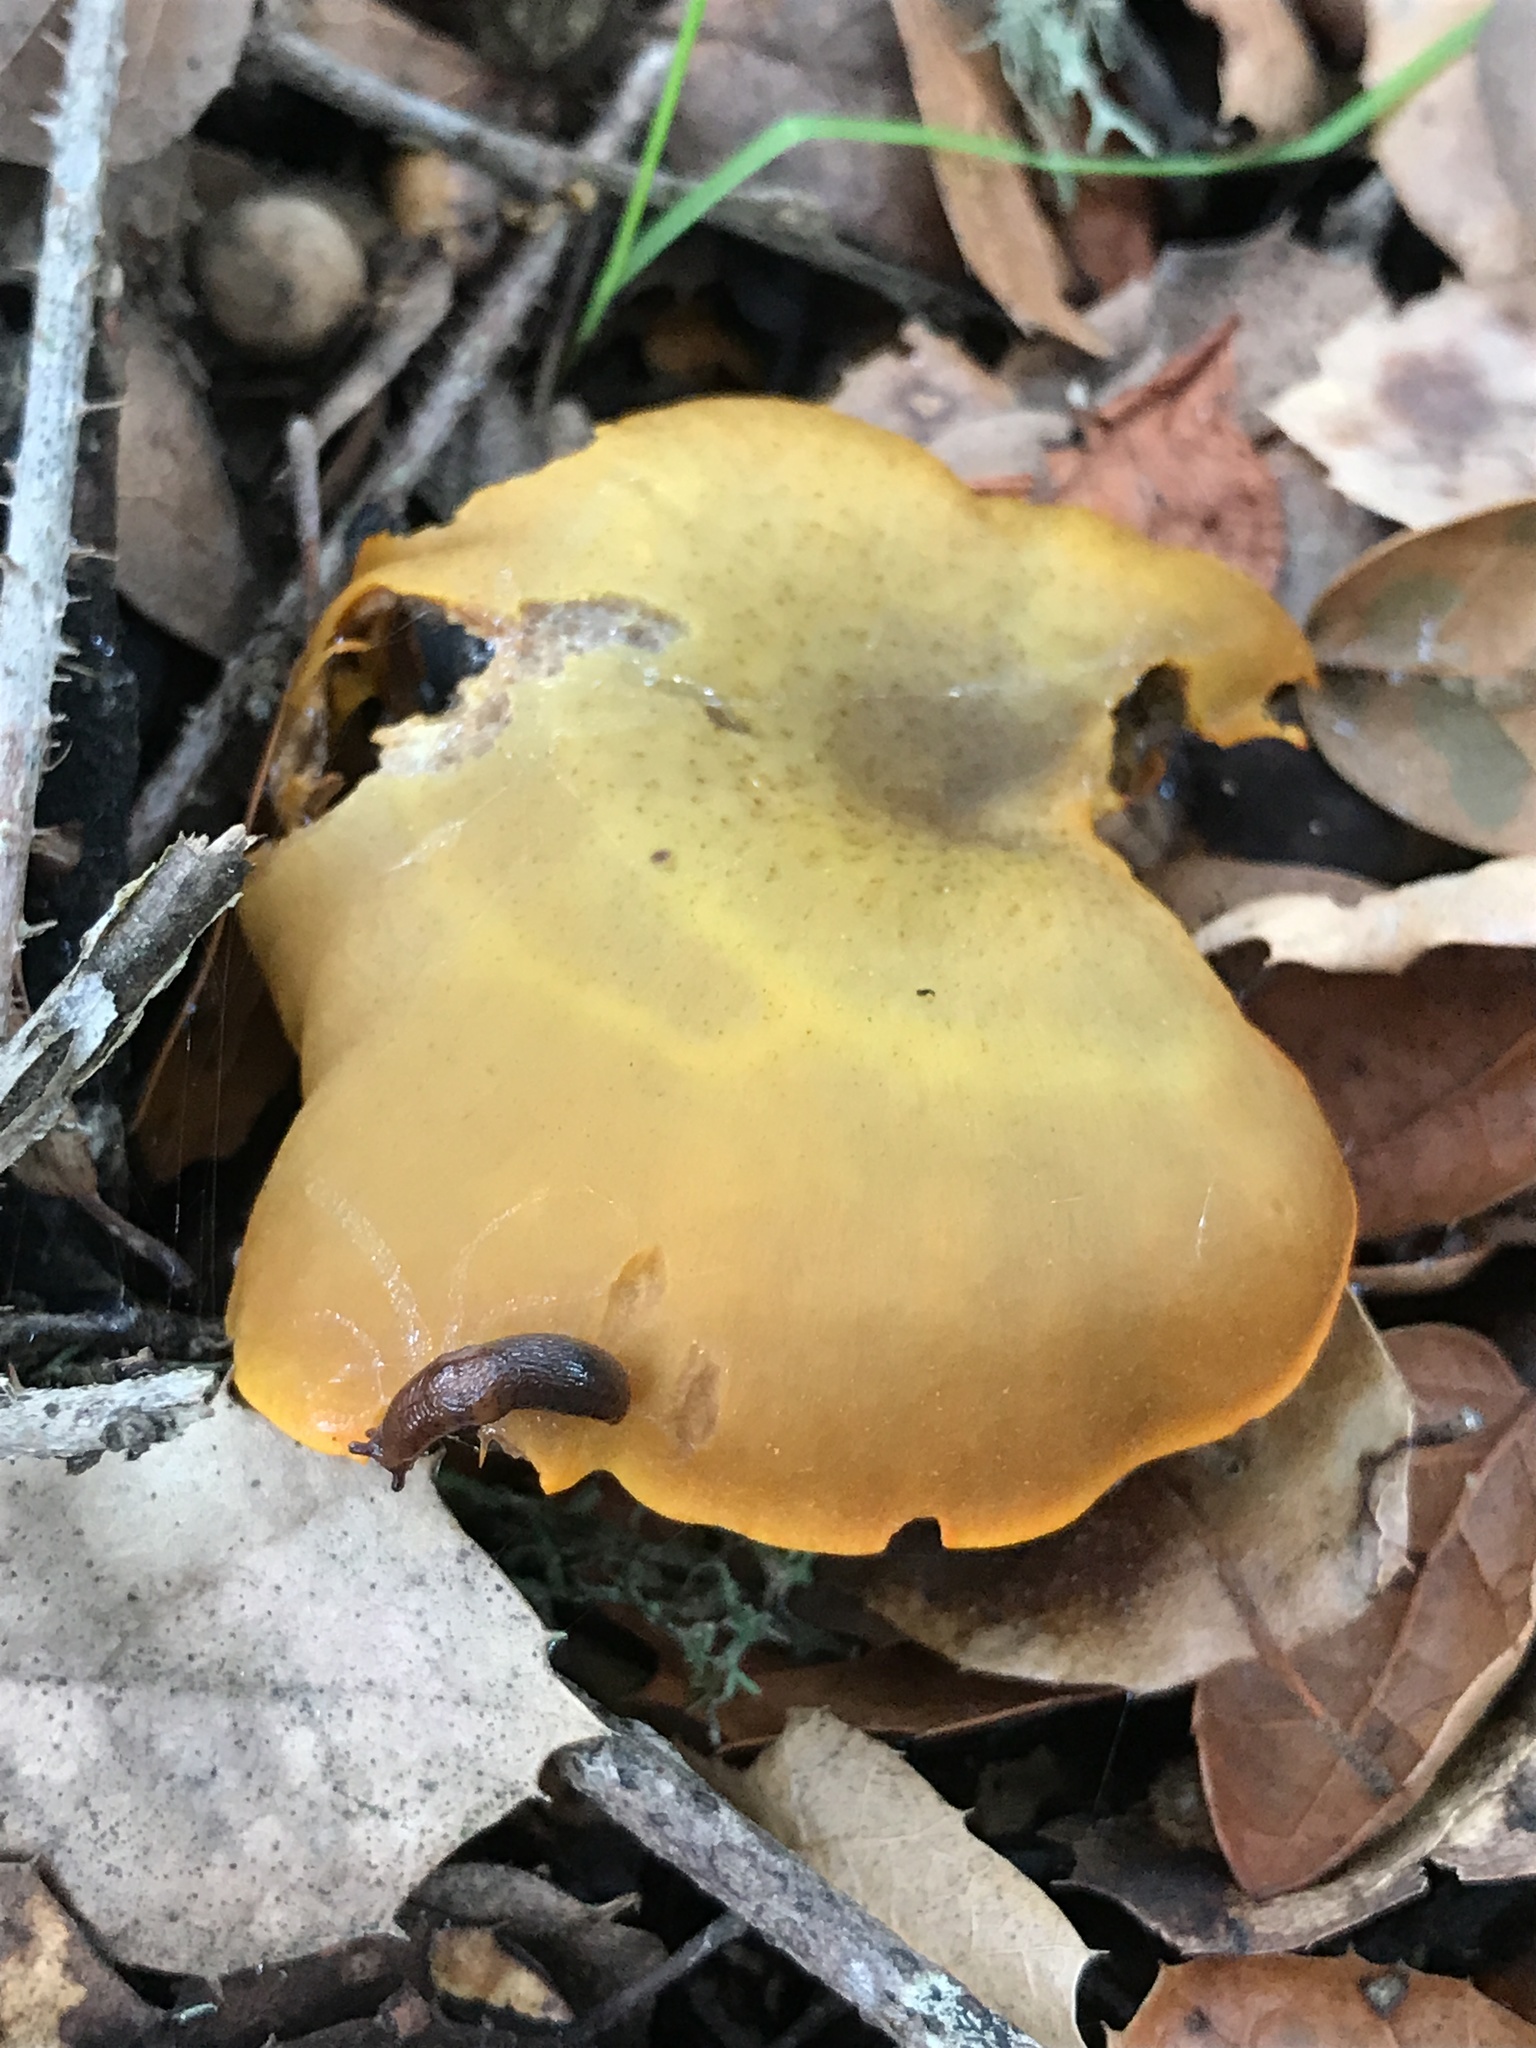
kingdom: Fungi
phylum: Basidiomycota
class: Agaricomycetes
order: Agaricales
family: Omphalotaceae
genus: Omphalotus
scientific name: Omphalotus olivascens
